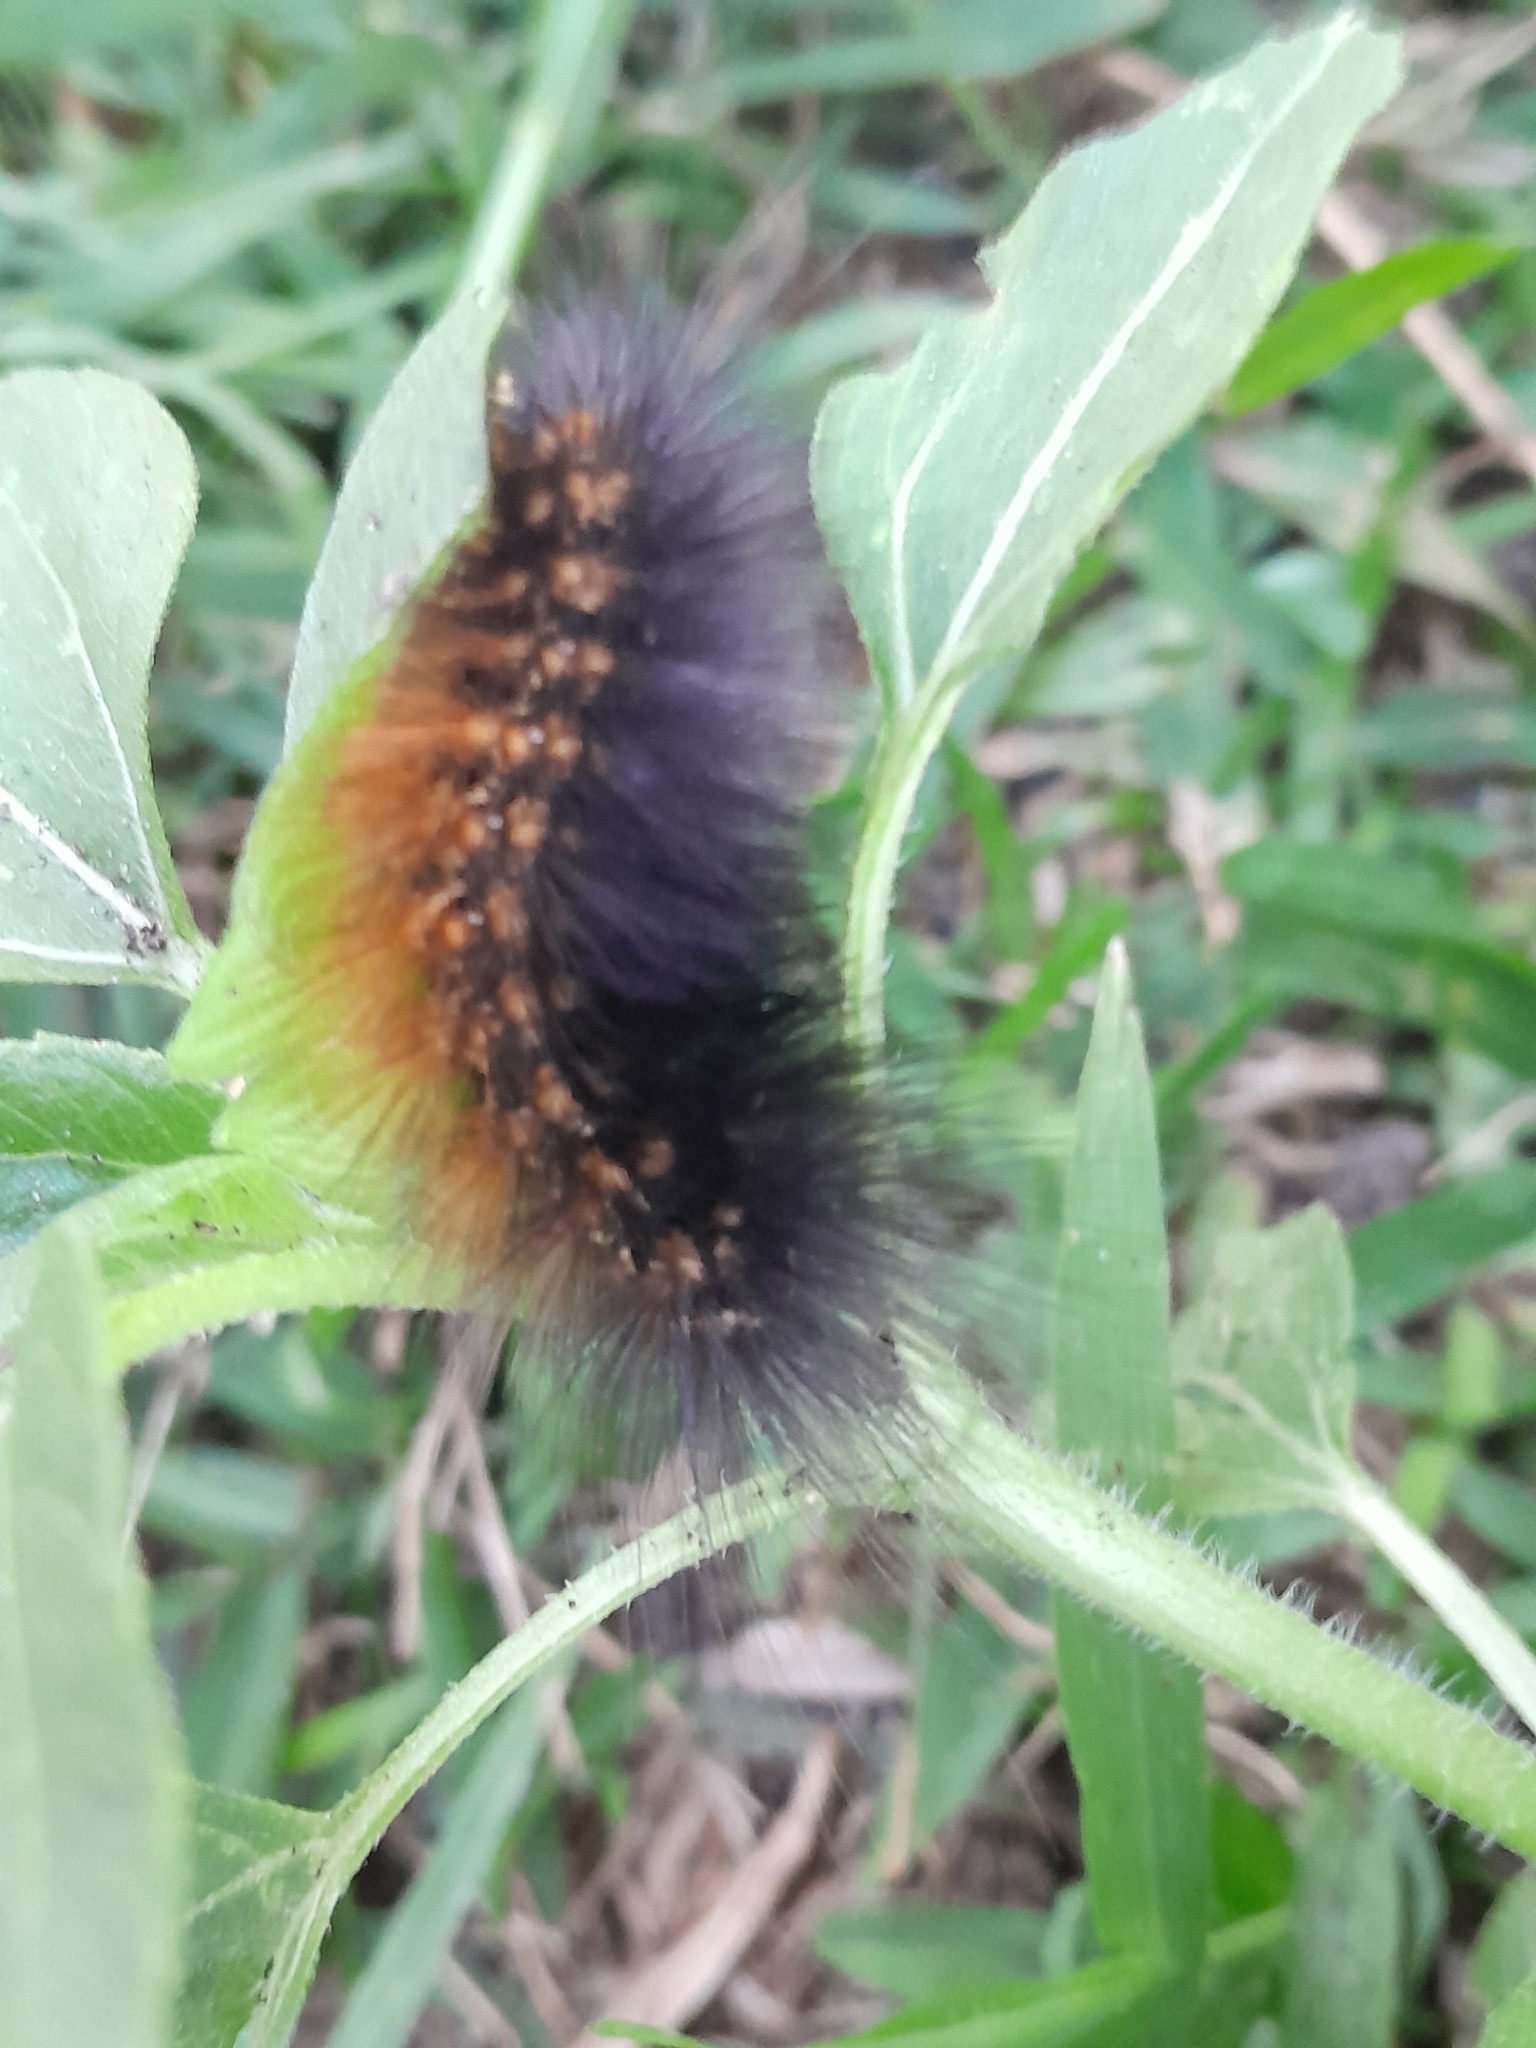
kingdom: Animalia
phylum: Arthropoda
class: Insecta
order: Lepidoptera
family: Erebidae
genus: Estigmene
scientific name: Estigmene acrea
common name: Salt marsh moth
